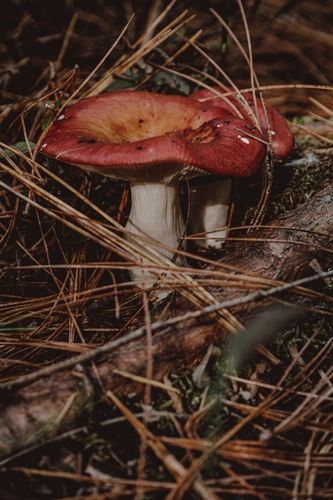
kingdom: Fungi
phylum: Basidiomycota
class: Agaricomycetes
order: Russulales
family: Russulaceae
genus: Russula
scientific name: Russula sanguinea
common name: Bloody brittlegill
